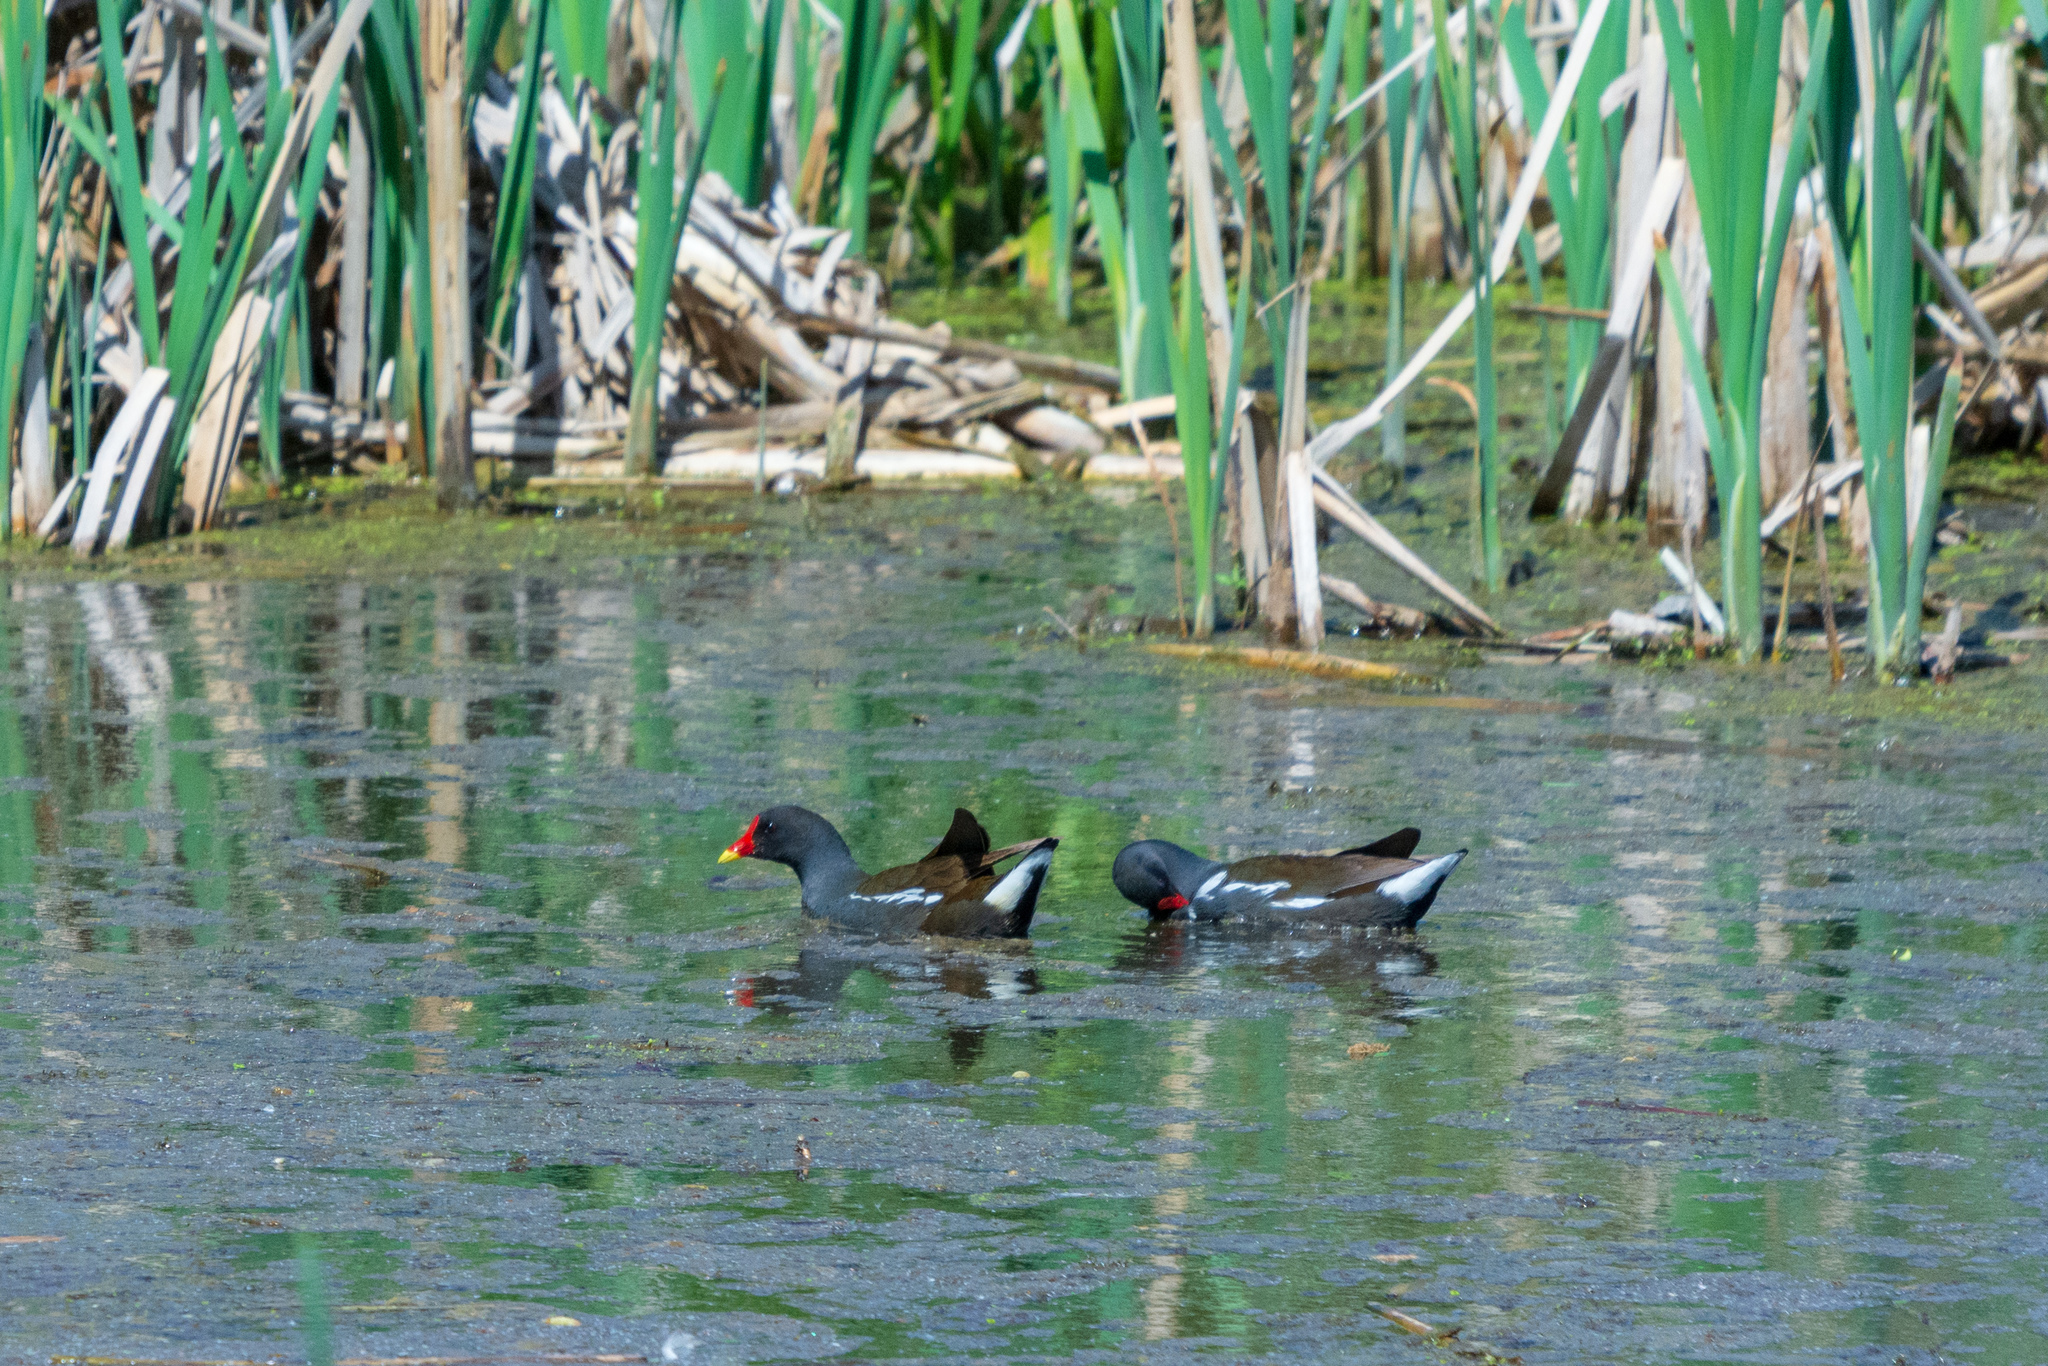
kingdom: Animalia
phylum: Chordata
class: Aves
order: Gruiformes
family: Rallidae
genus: Gallinula
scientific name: Gallinula chloropus
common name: Common moorhen
